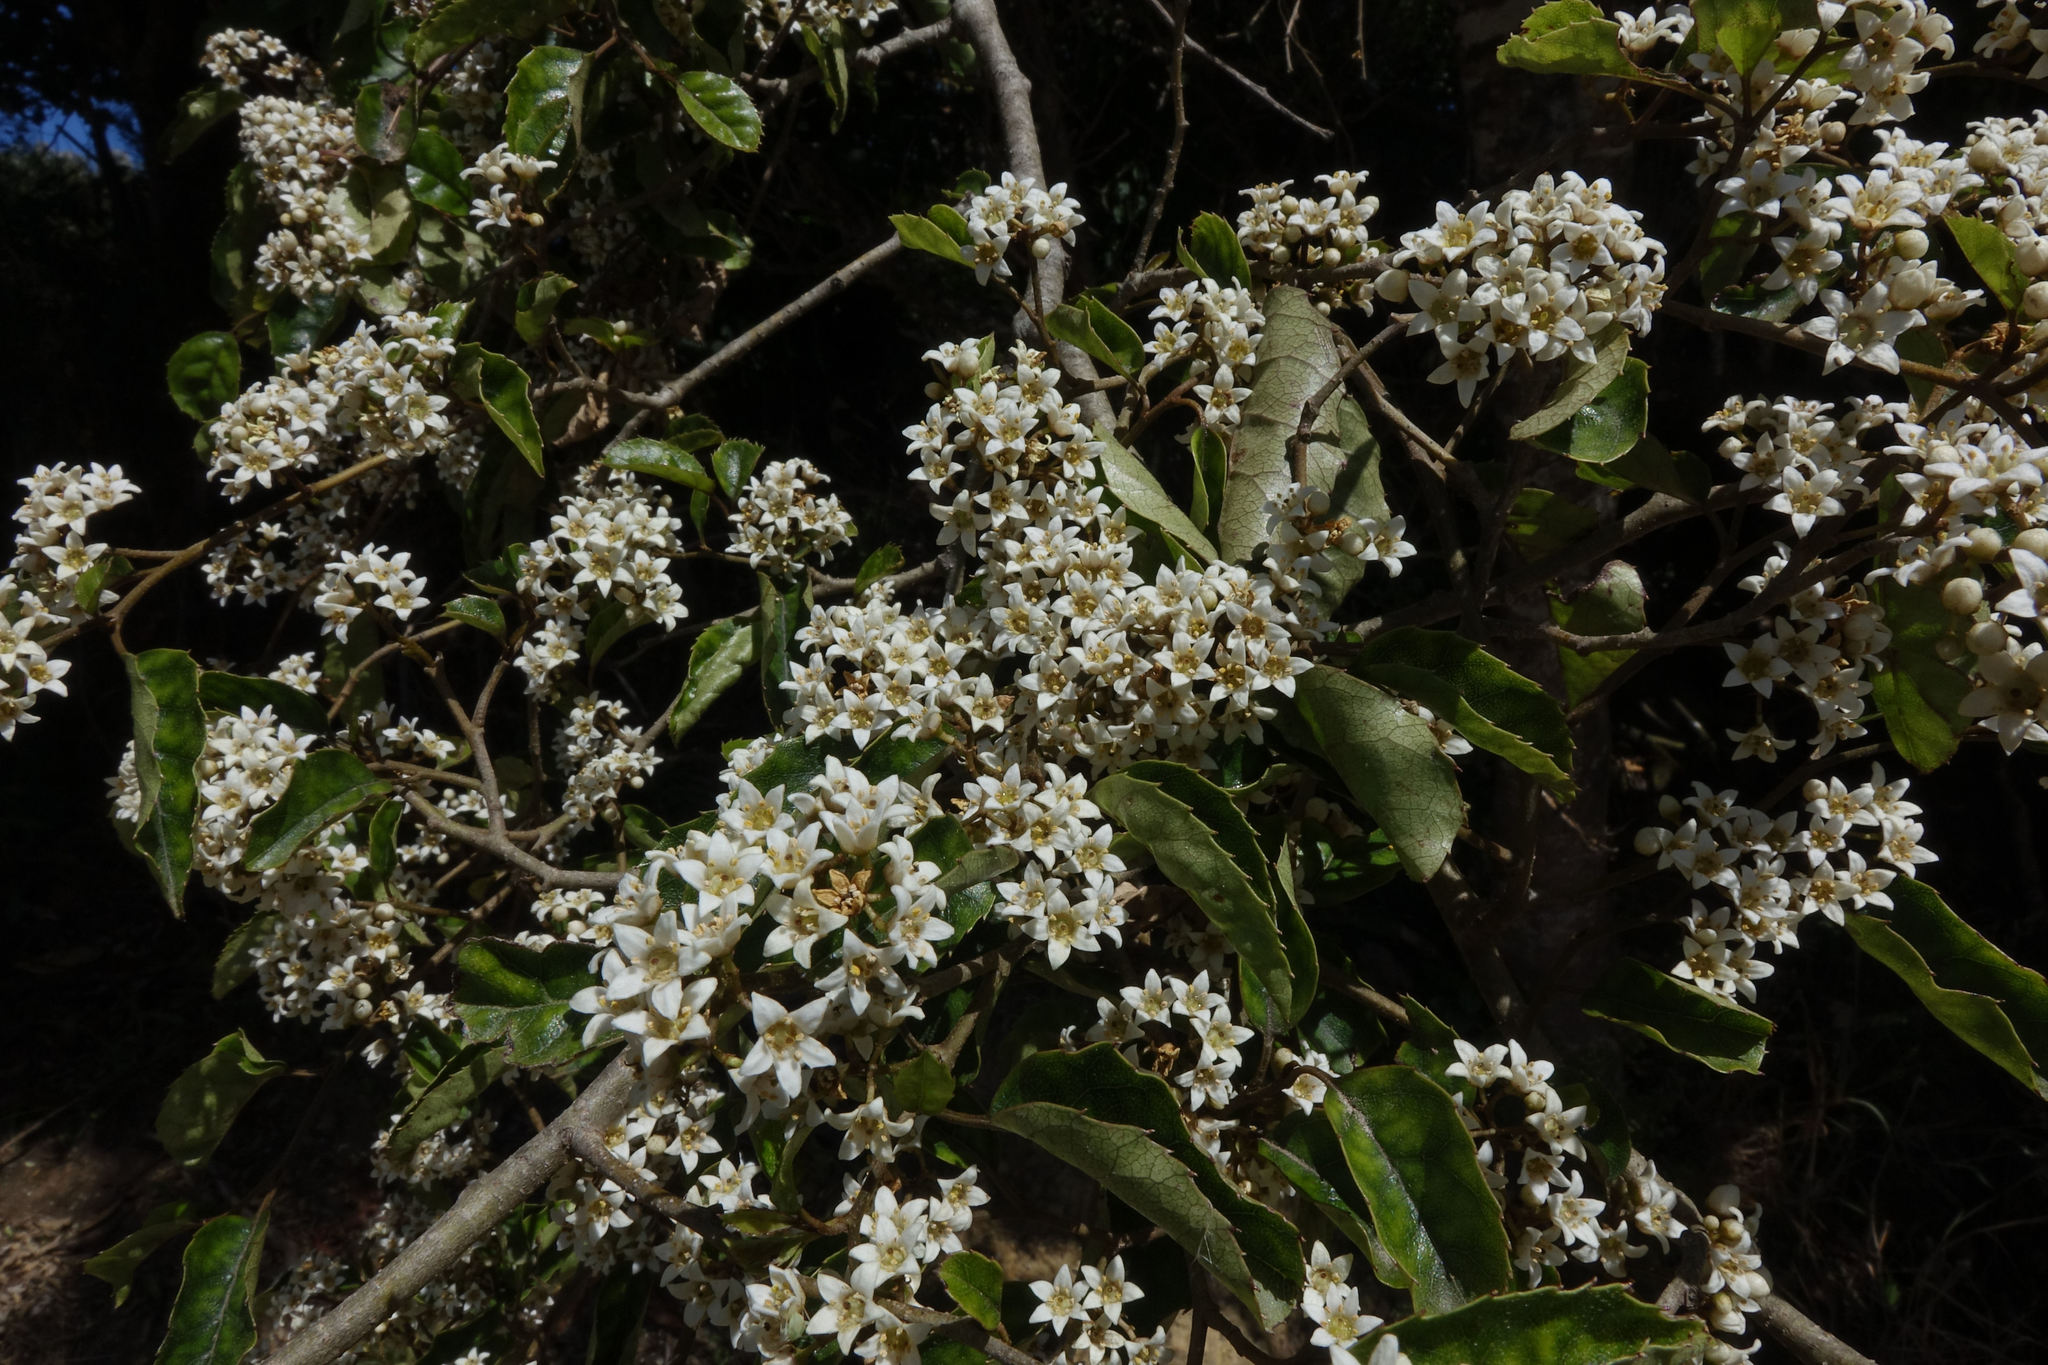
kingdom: Plantae
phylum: Tracheophyta
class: Magnoliopsida
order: Asterales
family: Rousseaceae
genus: Carpodetus
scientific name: Carpodetus serratus
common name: White mapau
